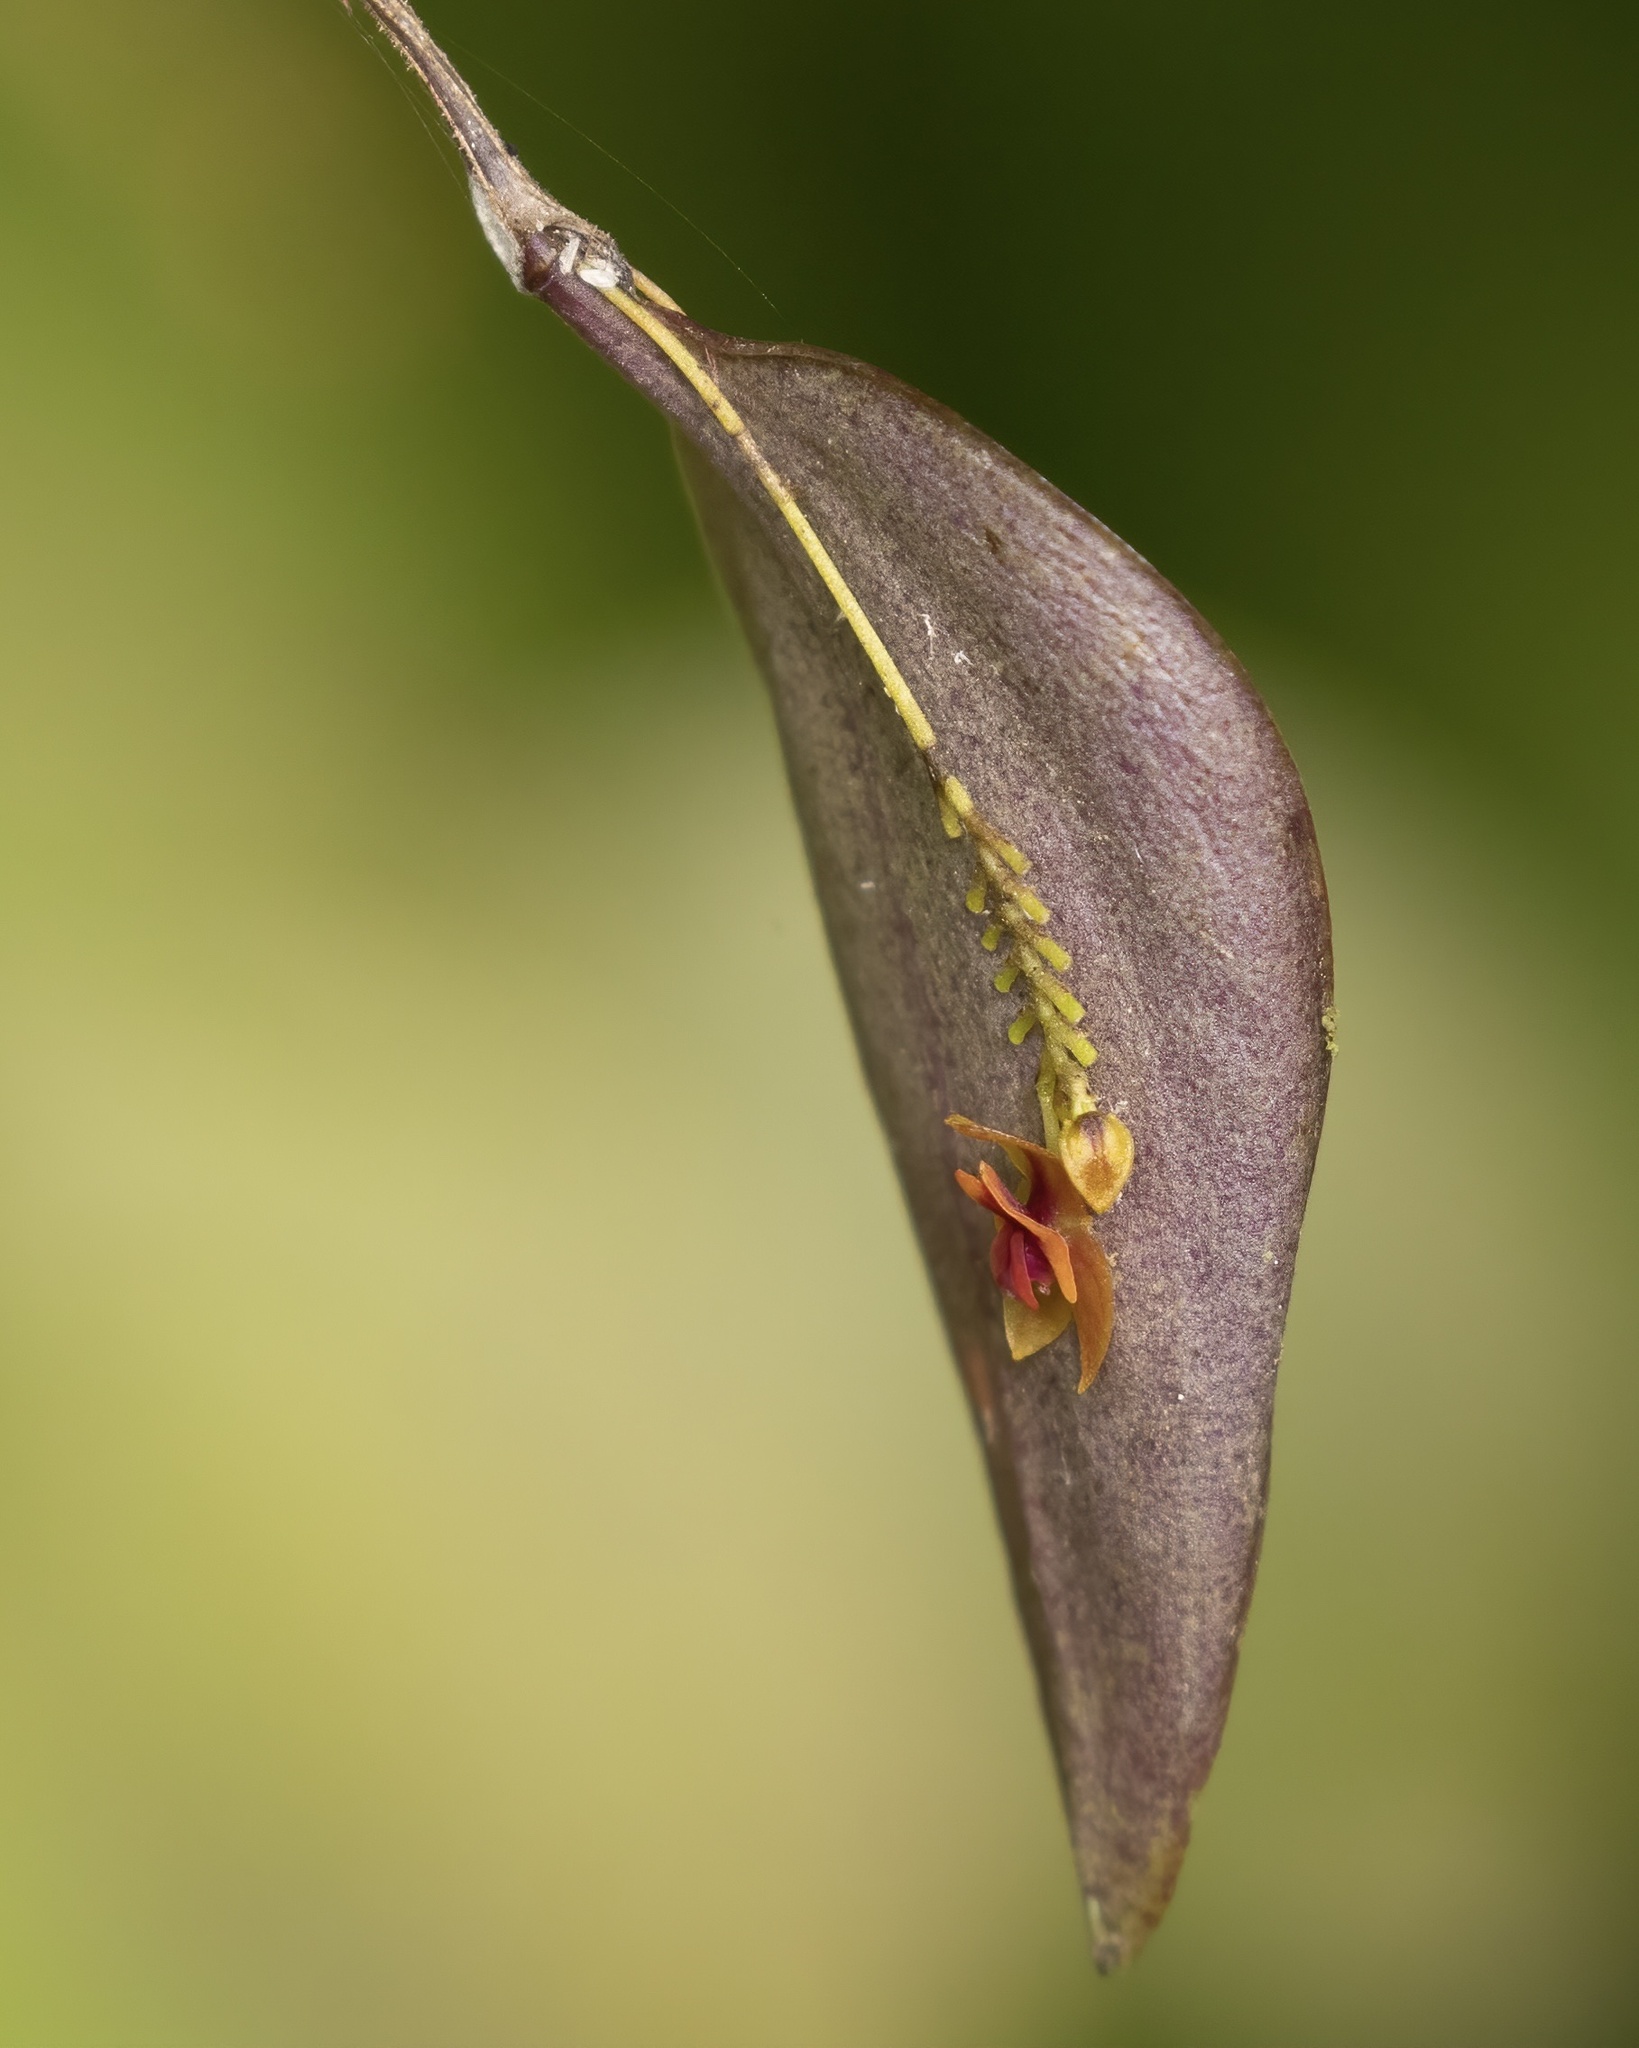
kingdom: Plantae
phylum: Tracheophyta
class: Liliopsida
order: Asparagales
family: Orchidaceae
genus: Lepanthes
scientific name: Lepanthes woodburyana
